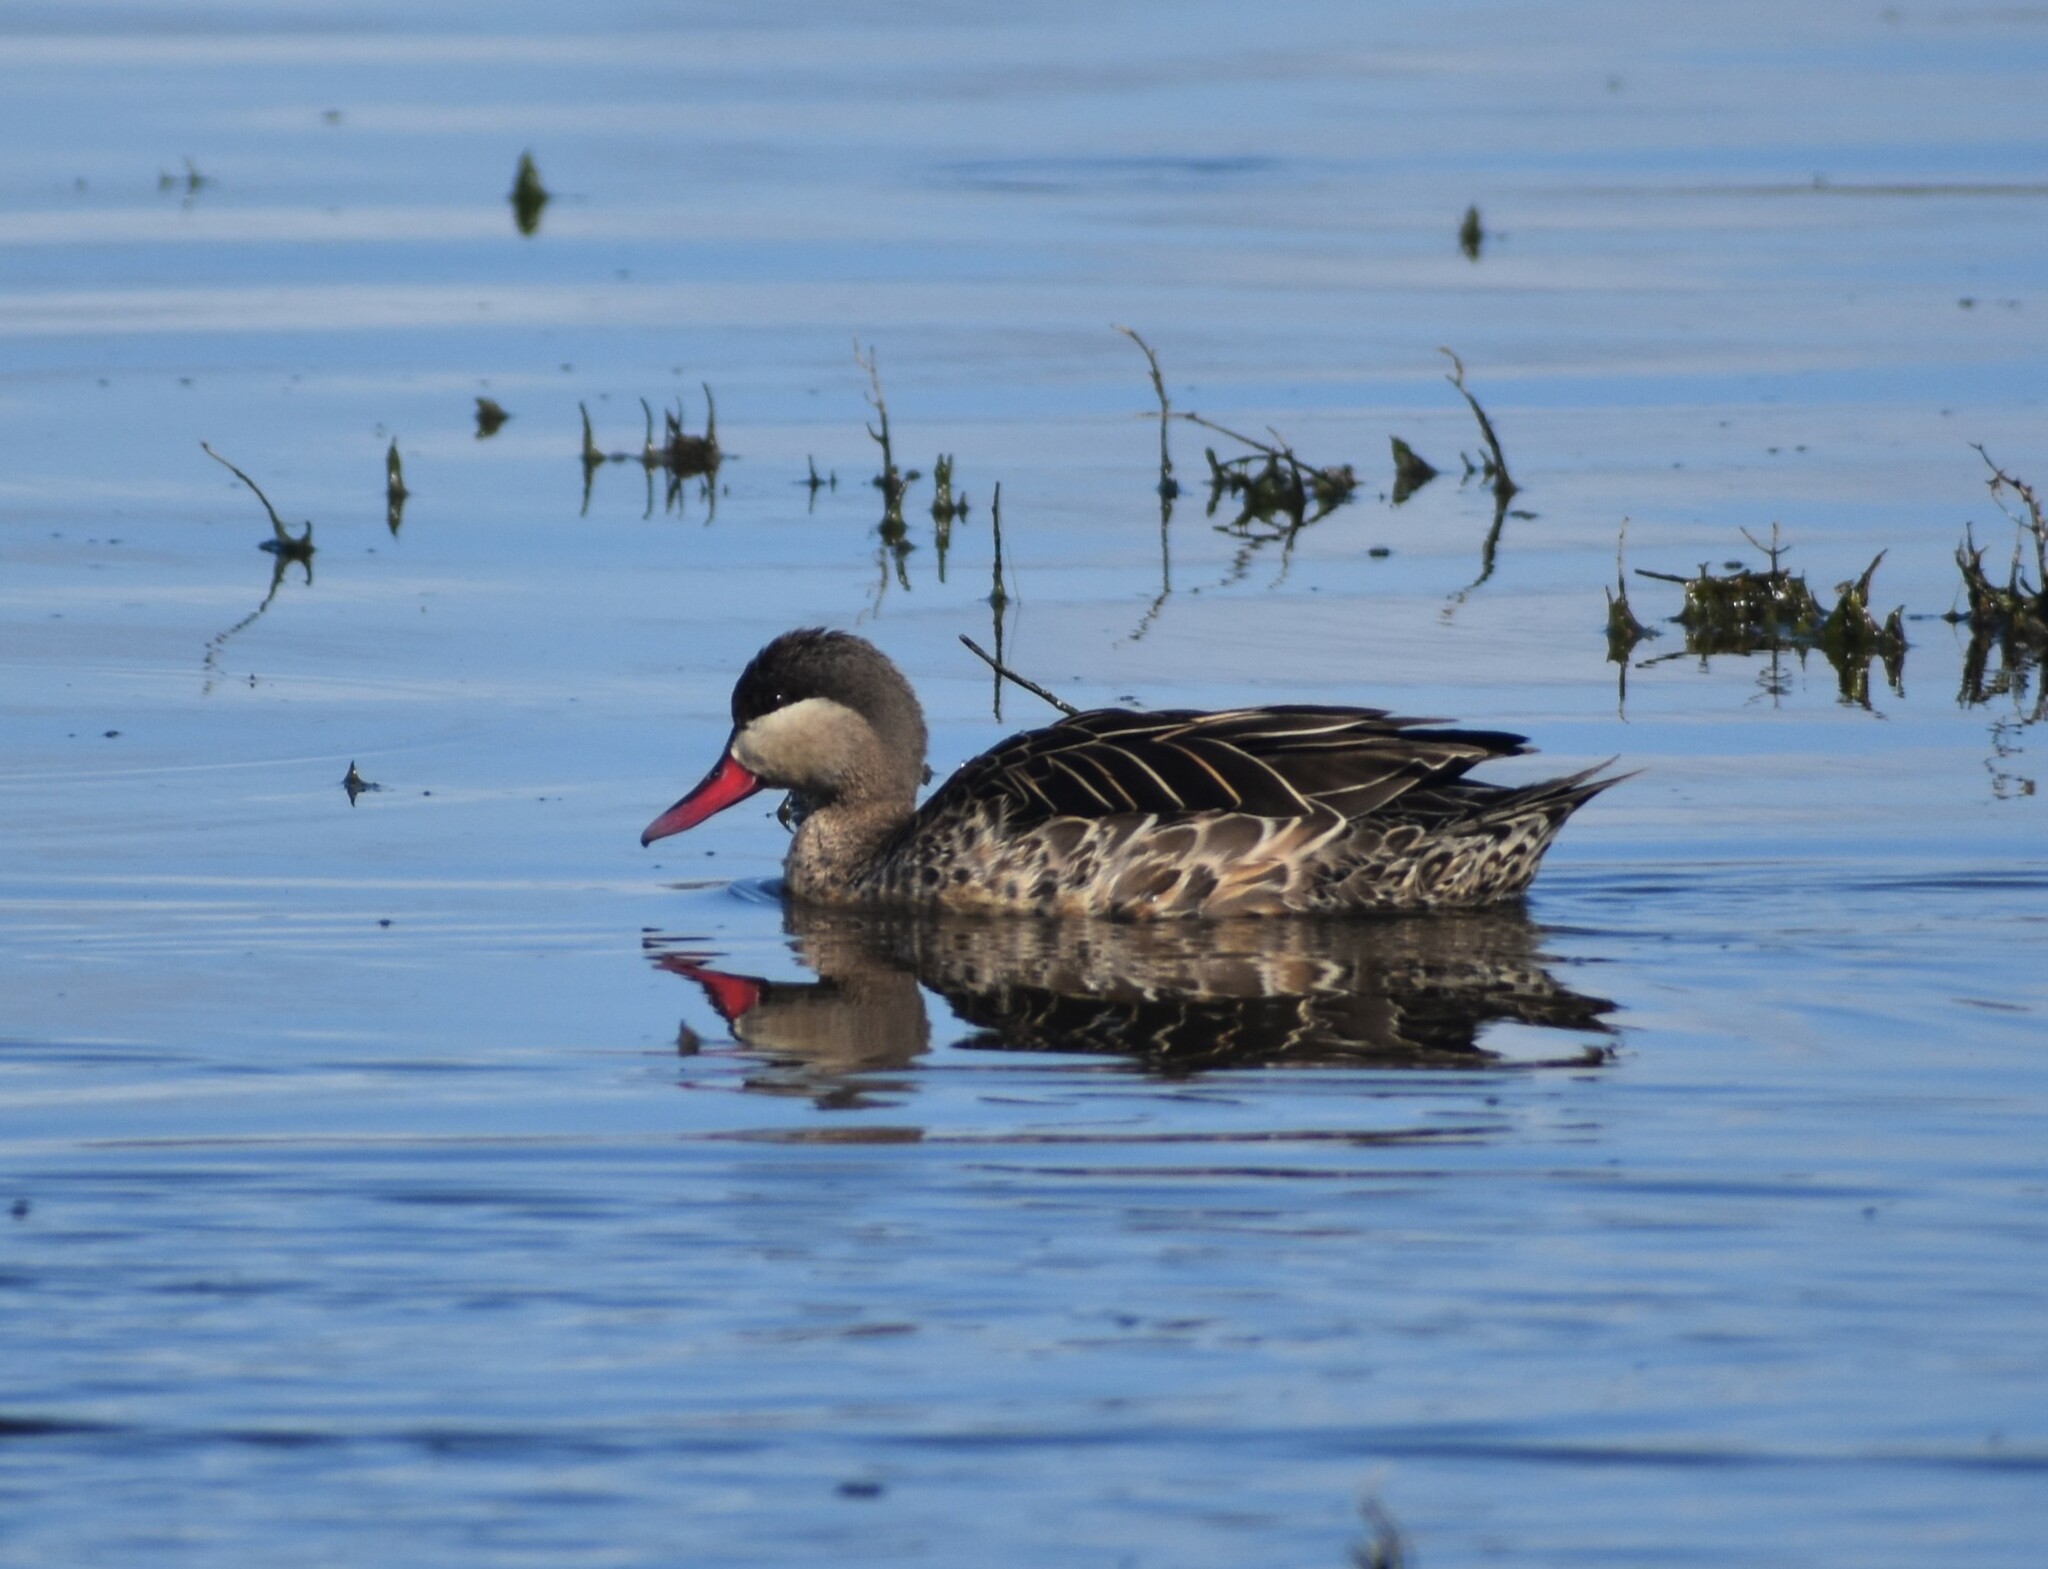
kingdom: Animalia
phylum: Chordata
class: Aves
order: Anseriformes
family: Anatidae
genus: Anas
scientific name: Anas erythrorhyncha
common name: Red-billed teal
